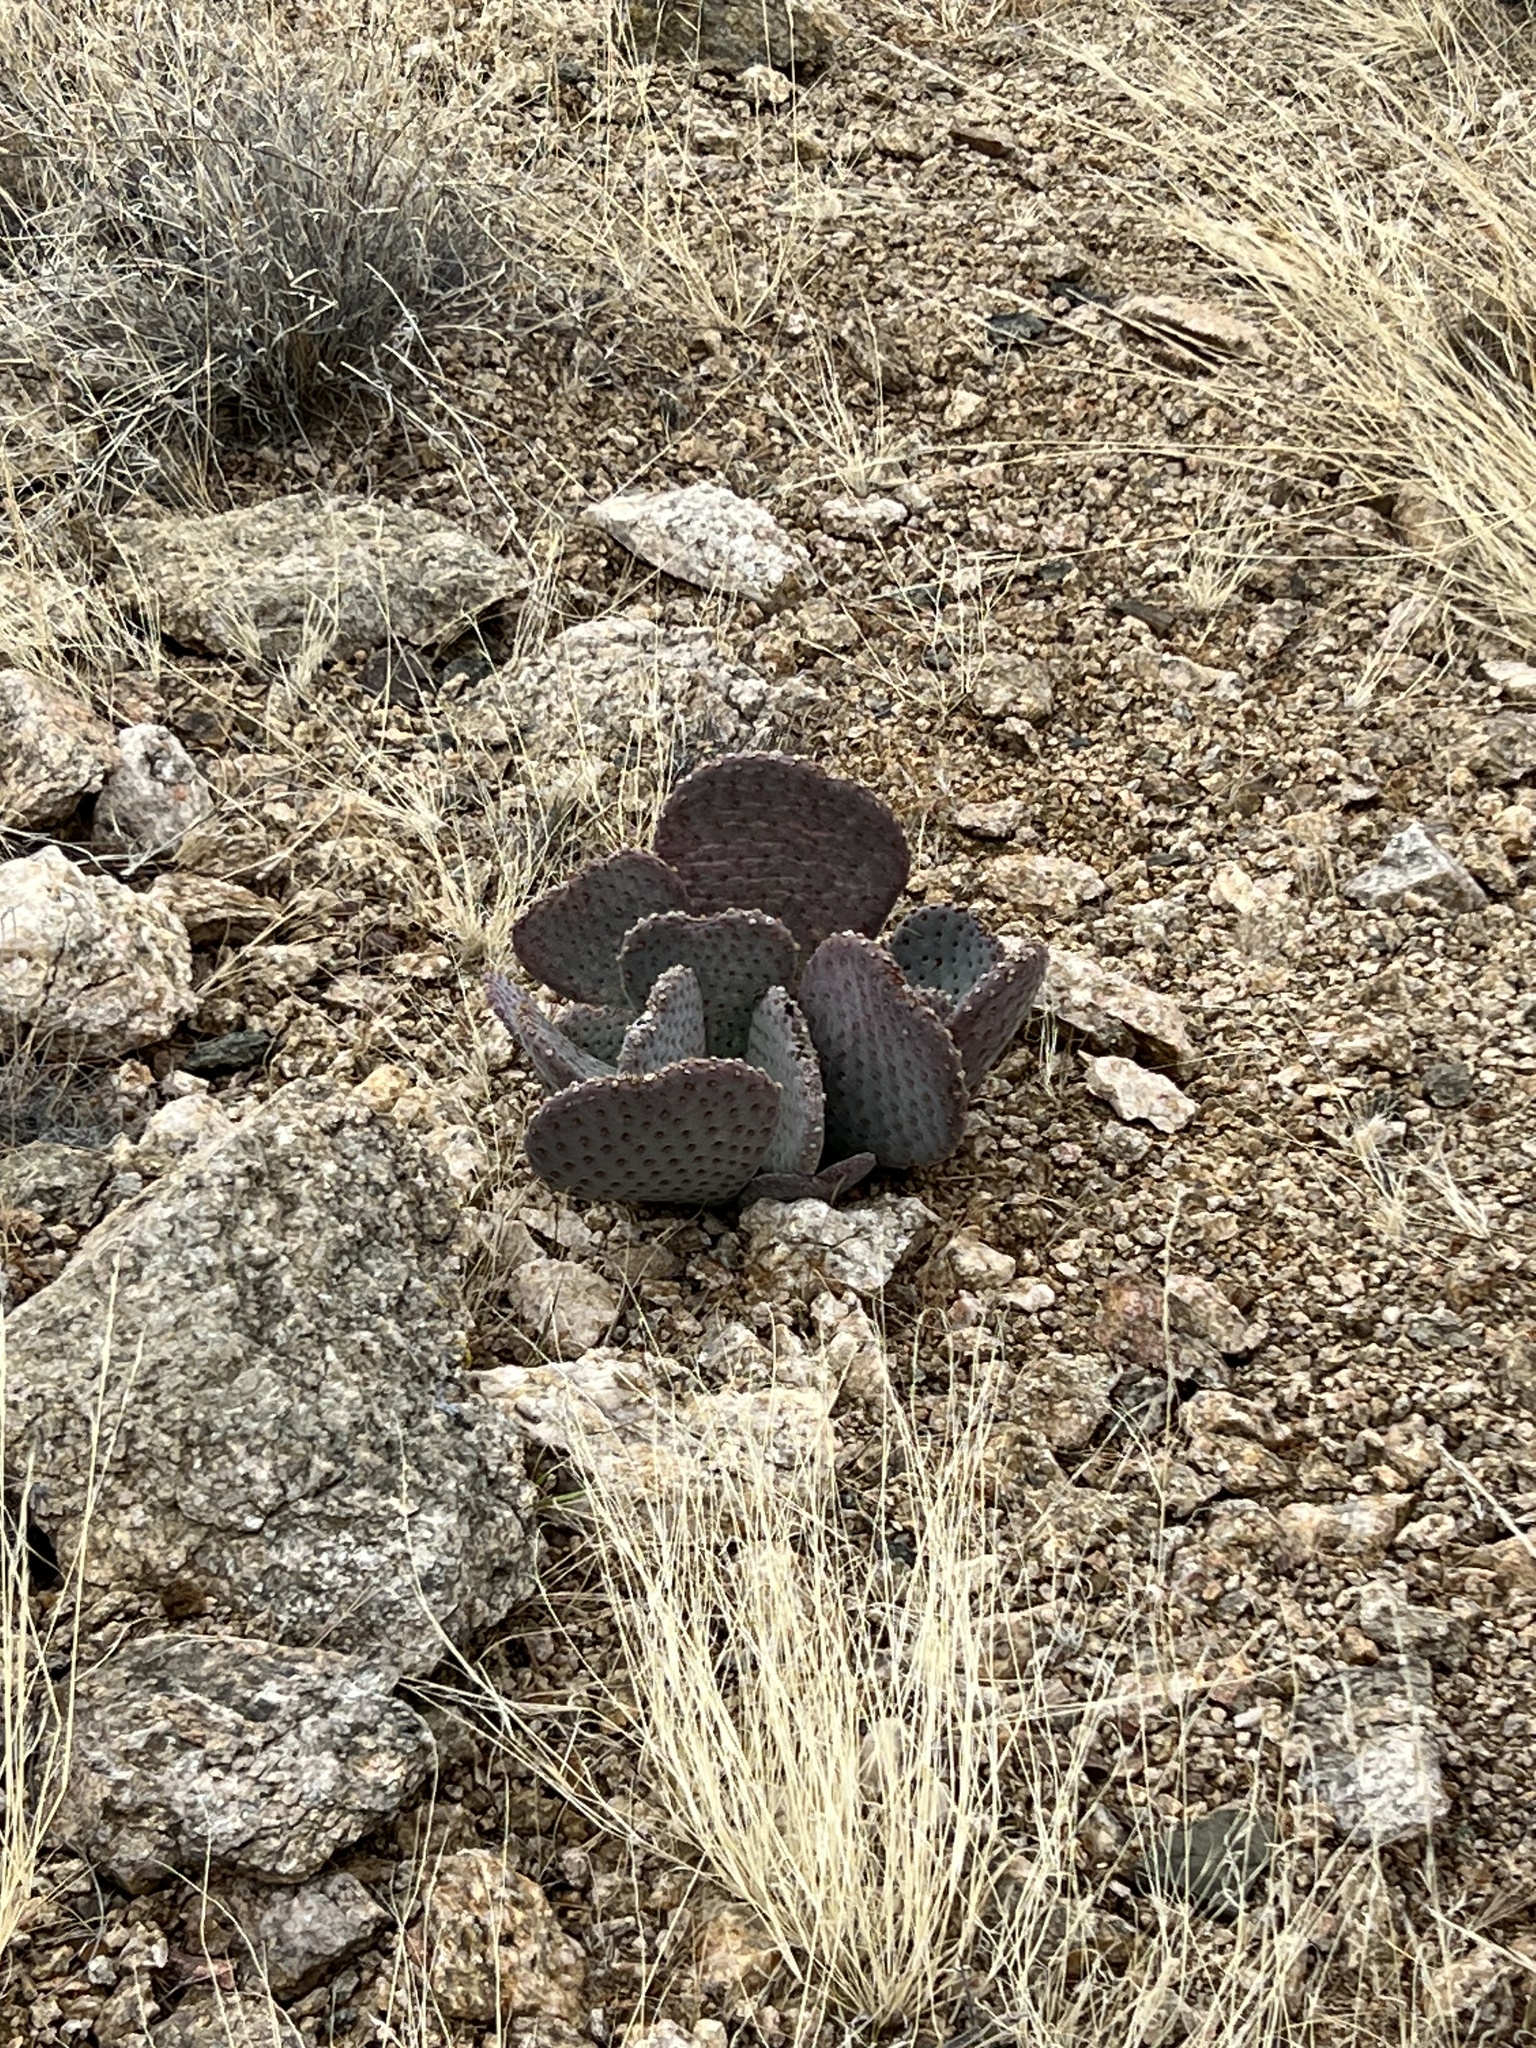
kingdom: Plantae
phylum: Tracheophyta
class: Magnoliopsida
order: Caryophyllales
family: Cactaceae
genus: Opuntia
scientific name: Opuntia basilaris
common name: Beavertail prickly-pear
